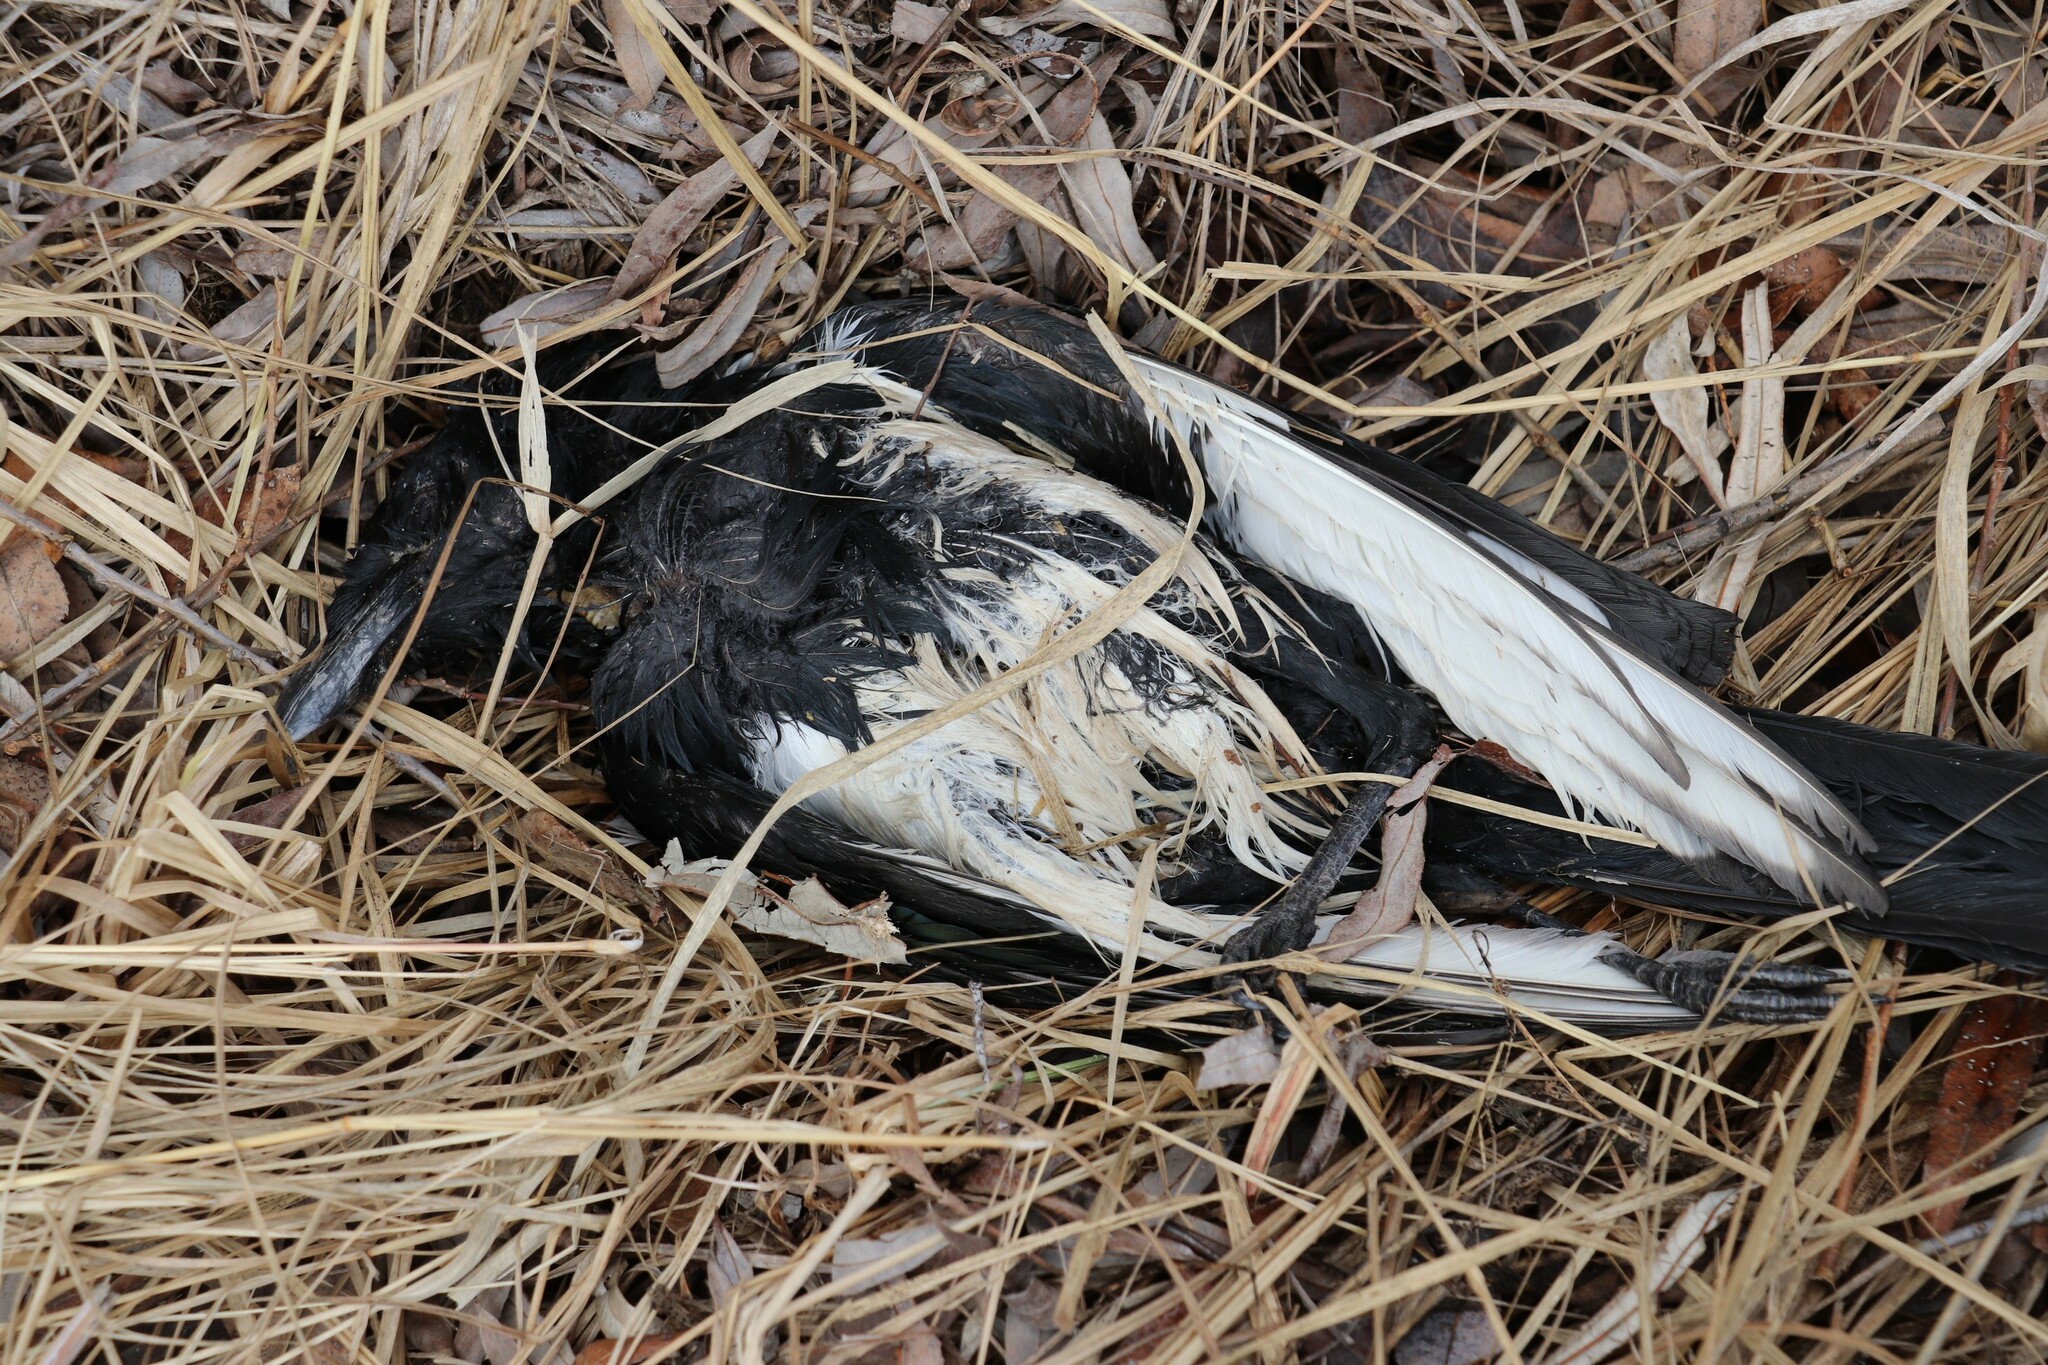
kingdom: Animalia
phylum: Chordata
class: Aves
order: Passeriformes
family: Corvidae
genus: Pica
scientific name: Pica pica
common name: Eurasian magpie
